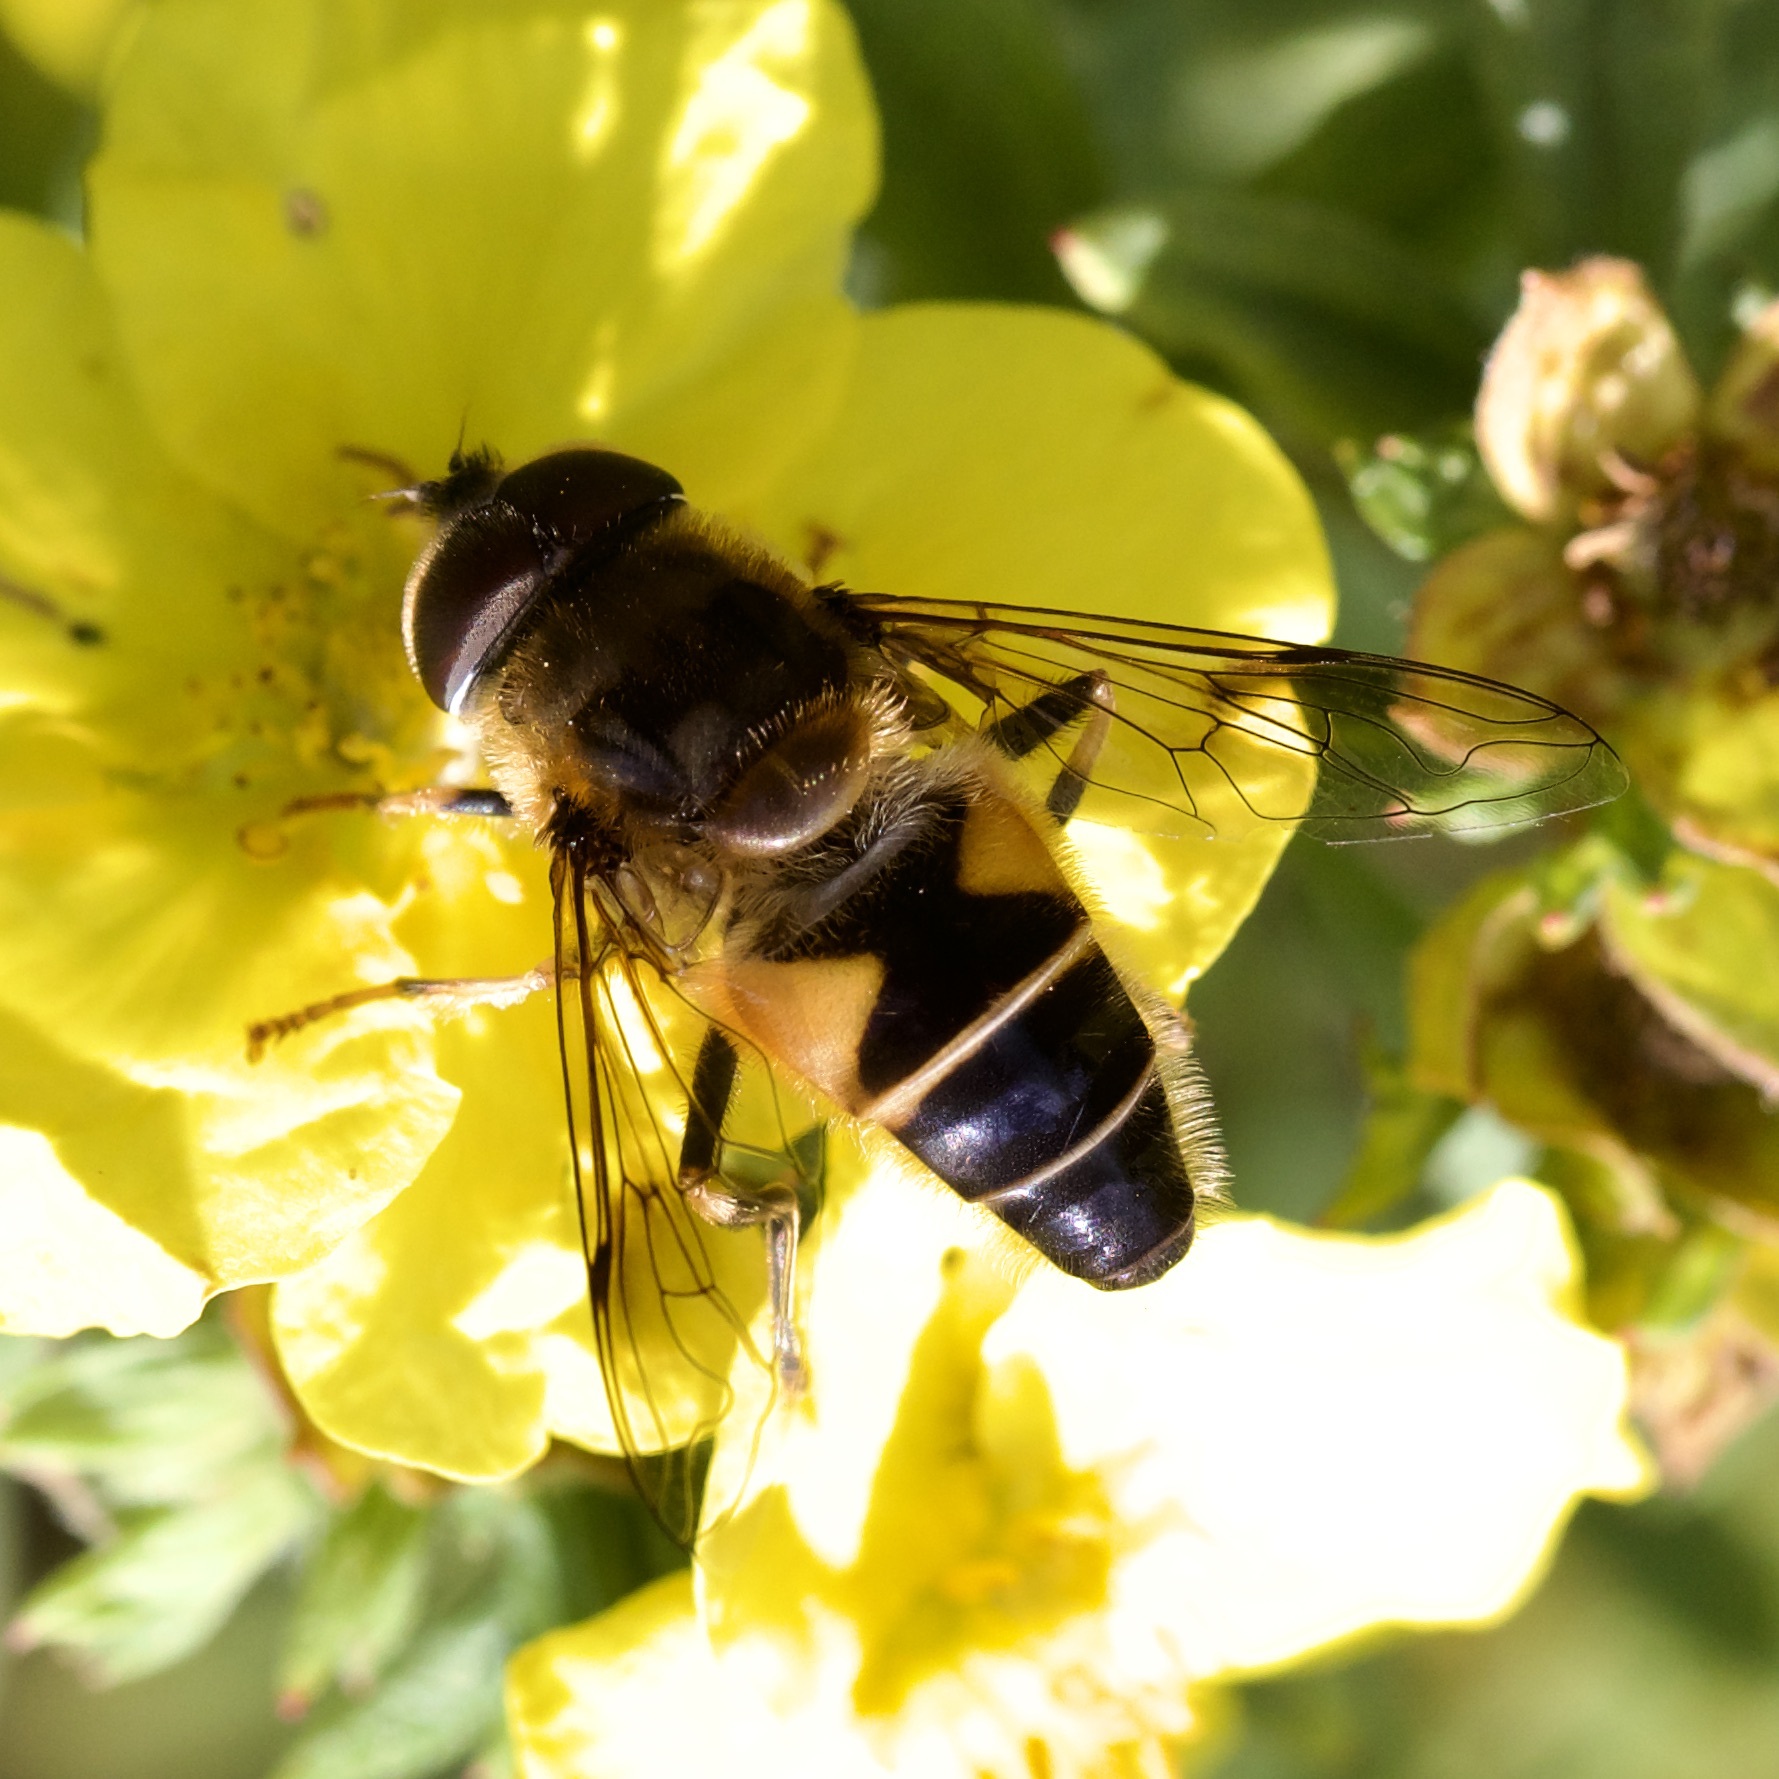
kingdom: Animalia
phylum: Arthropoda
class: Insecta
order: Diptera
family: Syrphidae
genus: Eristalis
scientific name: Eristalis pertinax
